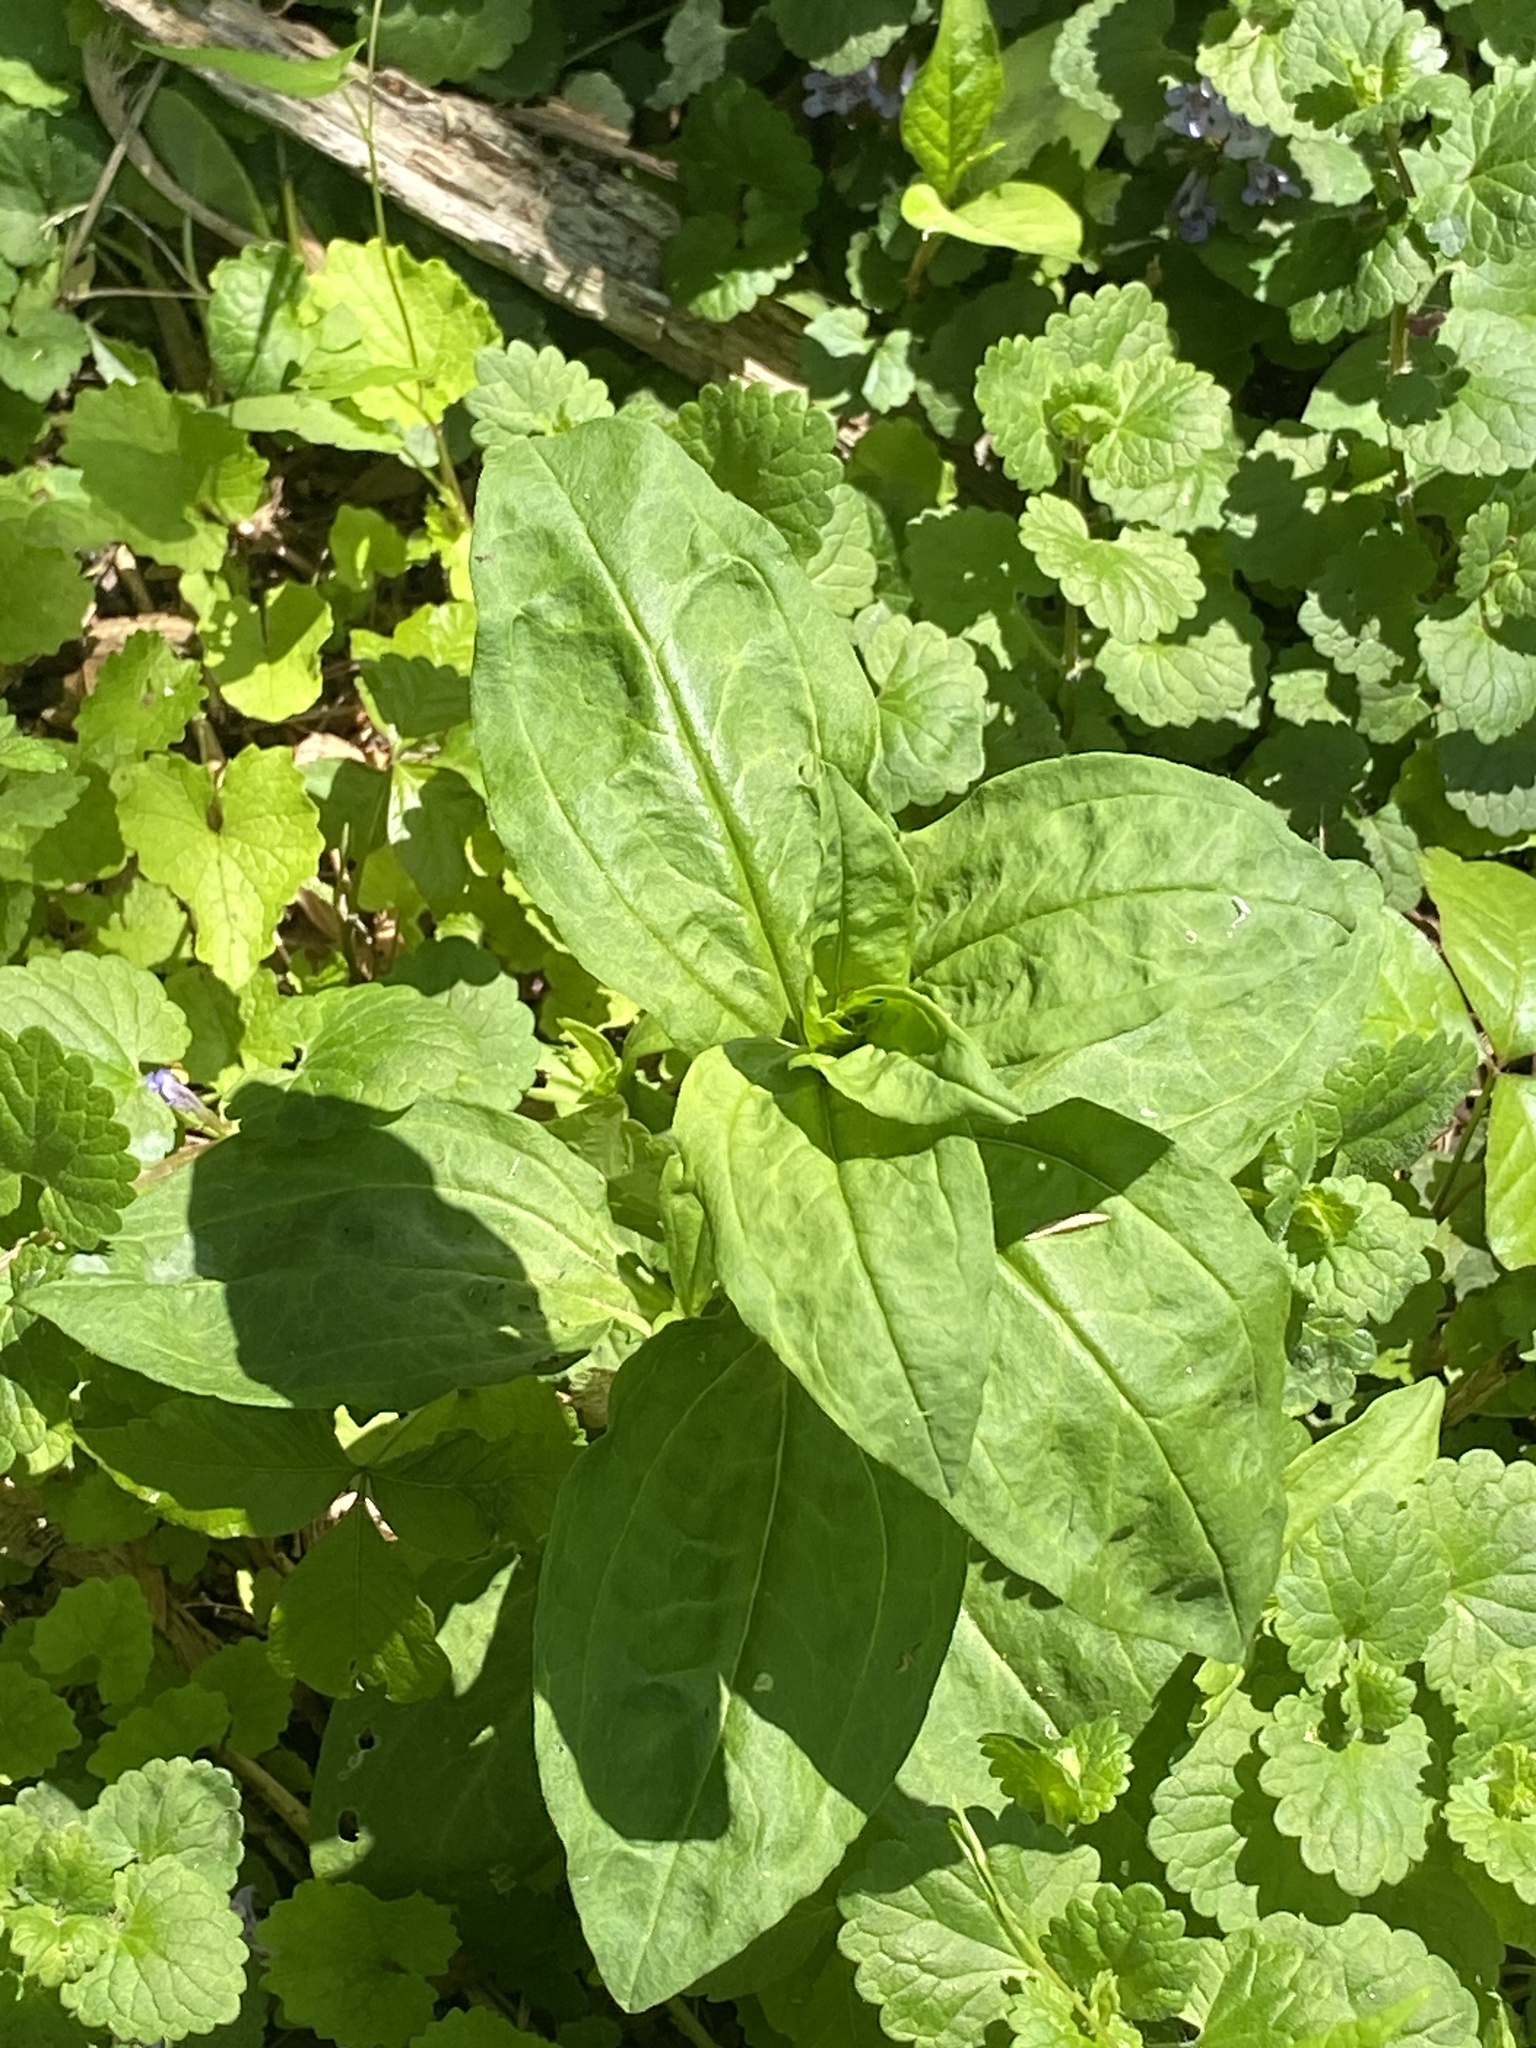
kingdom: Plantae
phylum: Tracheophyta
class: Magnoliopsida
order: Caryophyllales
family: Caryophyllaceae
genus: Saponaria
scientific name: Saponaria officinalis
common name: Soapwort
